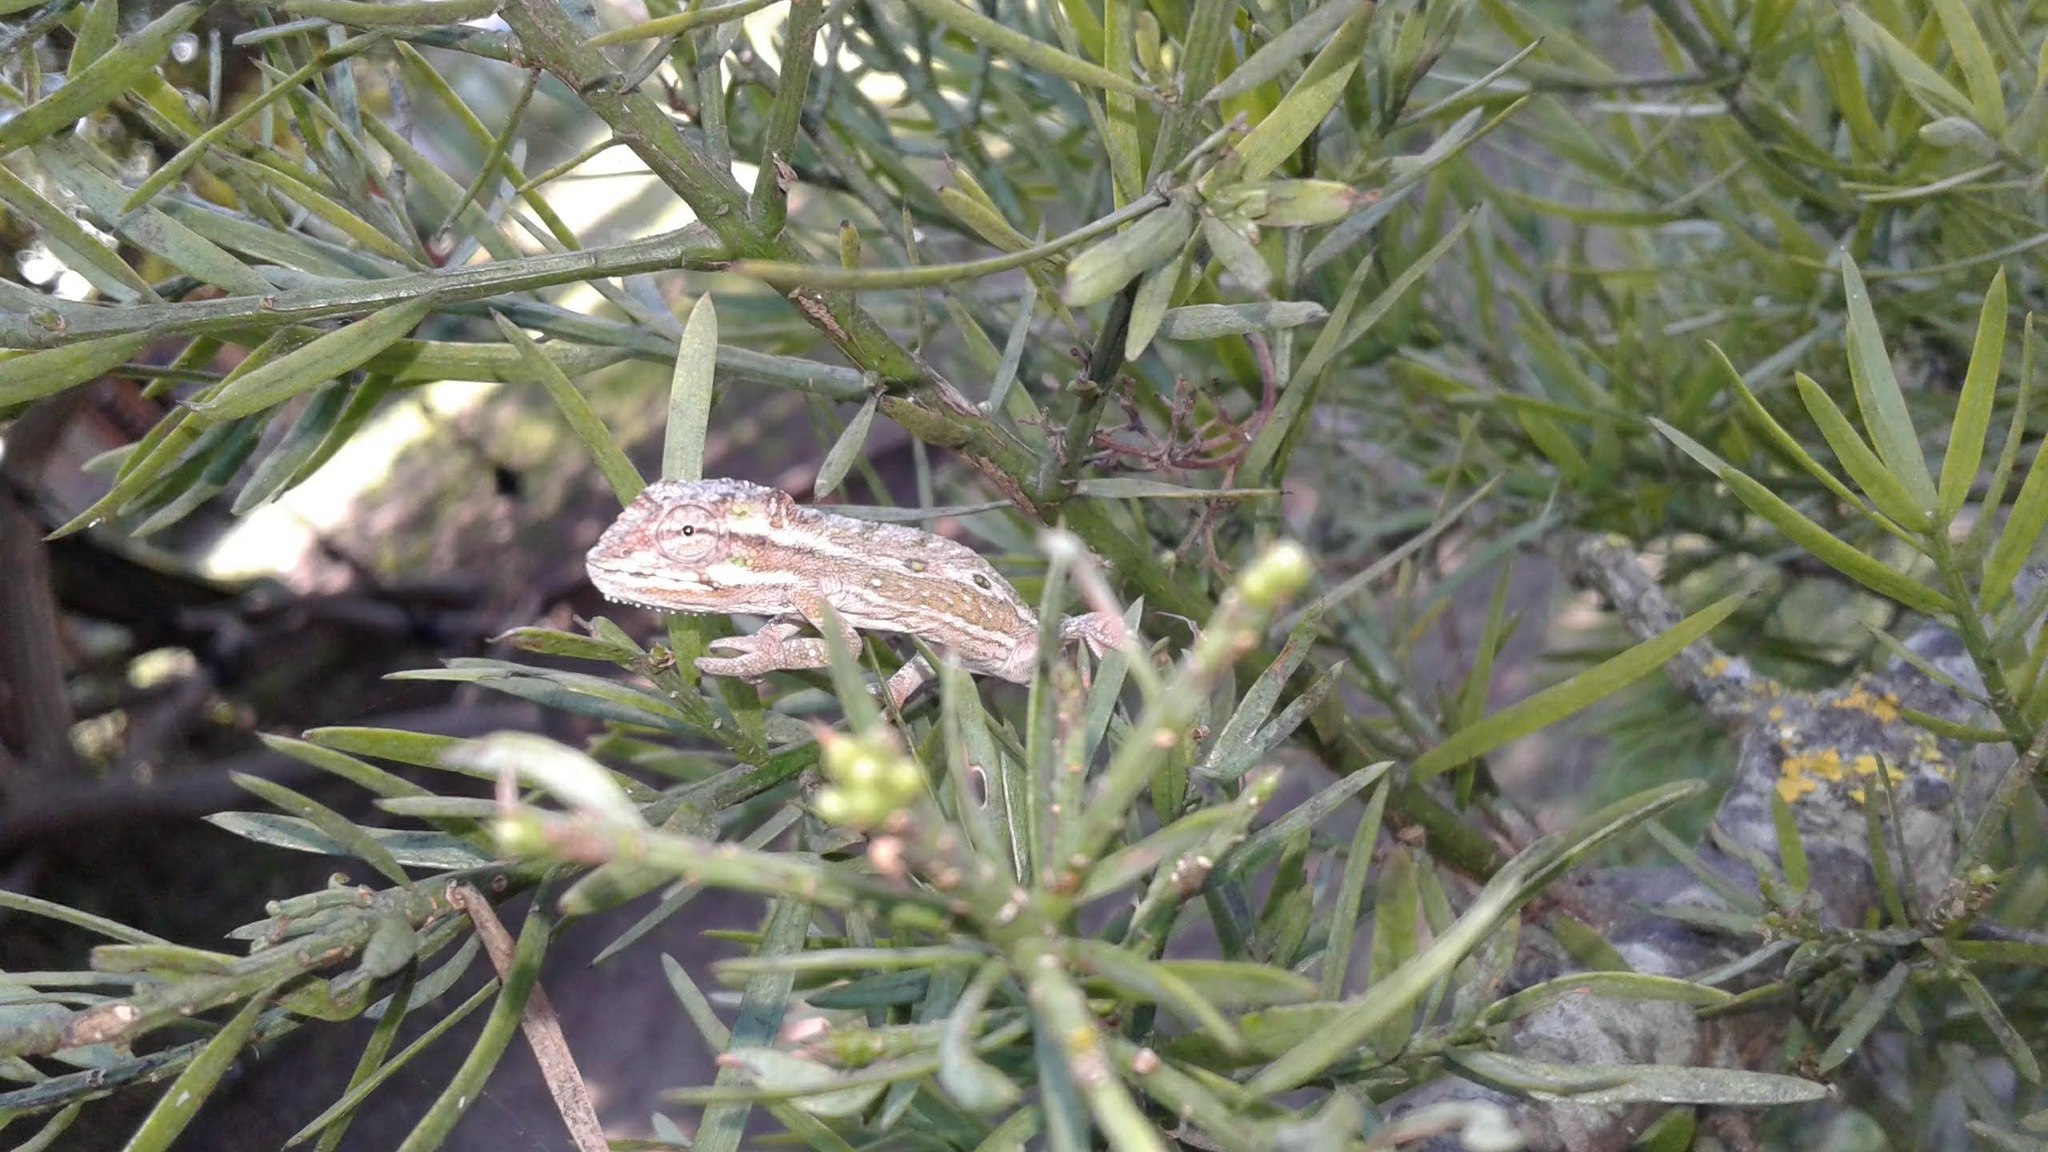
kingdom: Animalia
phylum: Chordata
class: Squamata
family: Chamaeleonidae
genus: Bradypodion
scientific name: Bradypodion pumilum
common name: Cape dwarf chameleon
